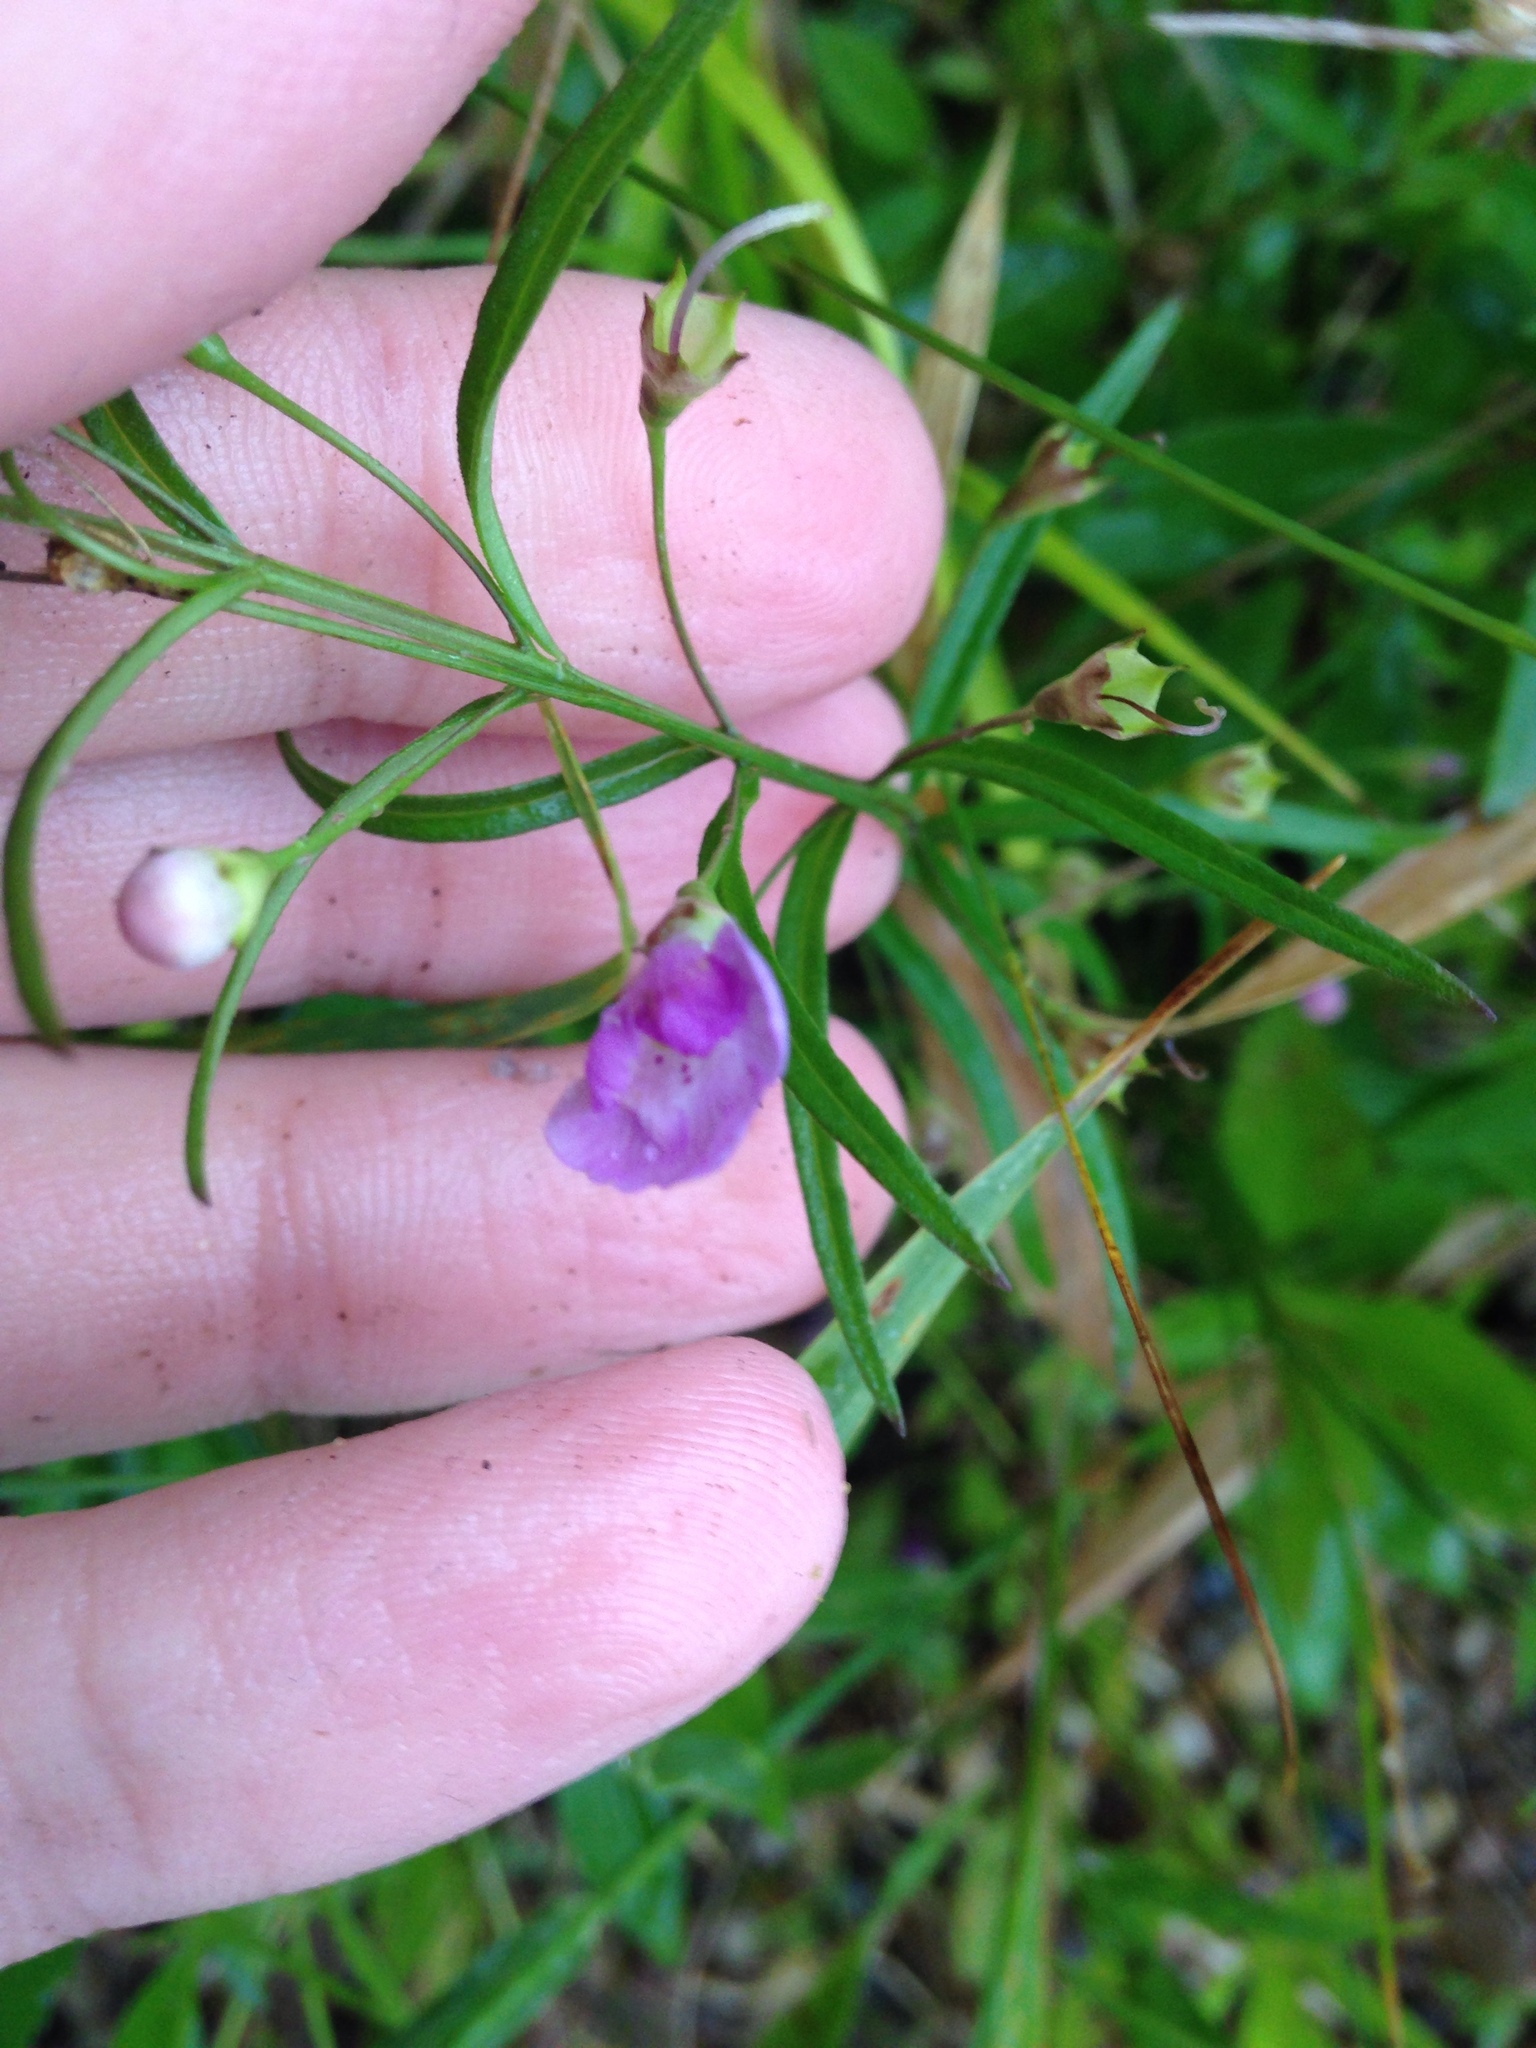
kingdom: Plantae
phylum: Tracheophyta
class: Magnoliopsida
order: Lamiales
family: Orobanchaceae
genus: Agalinis
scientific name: Agalinis tenuifolia
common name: Slender agalinis
